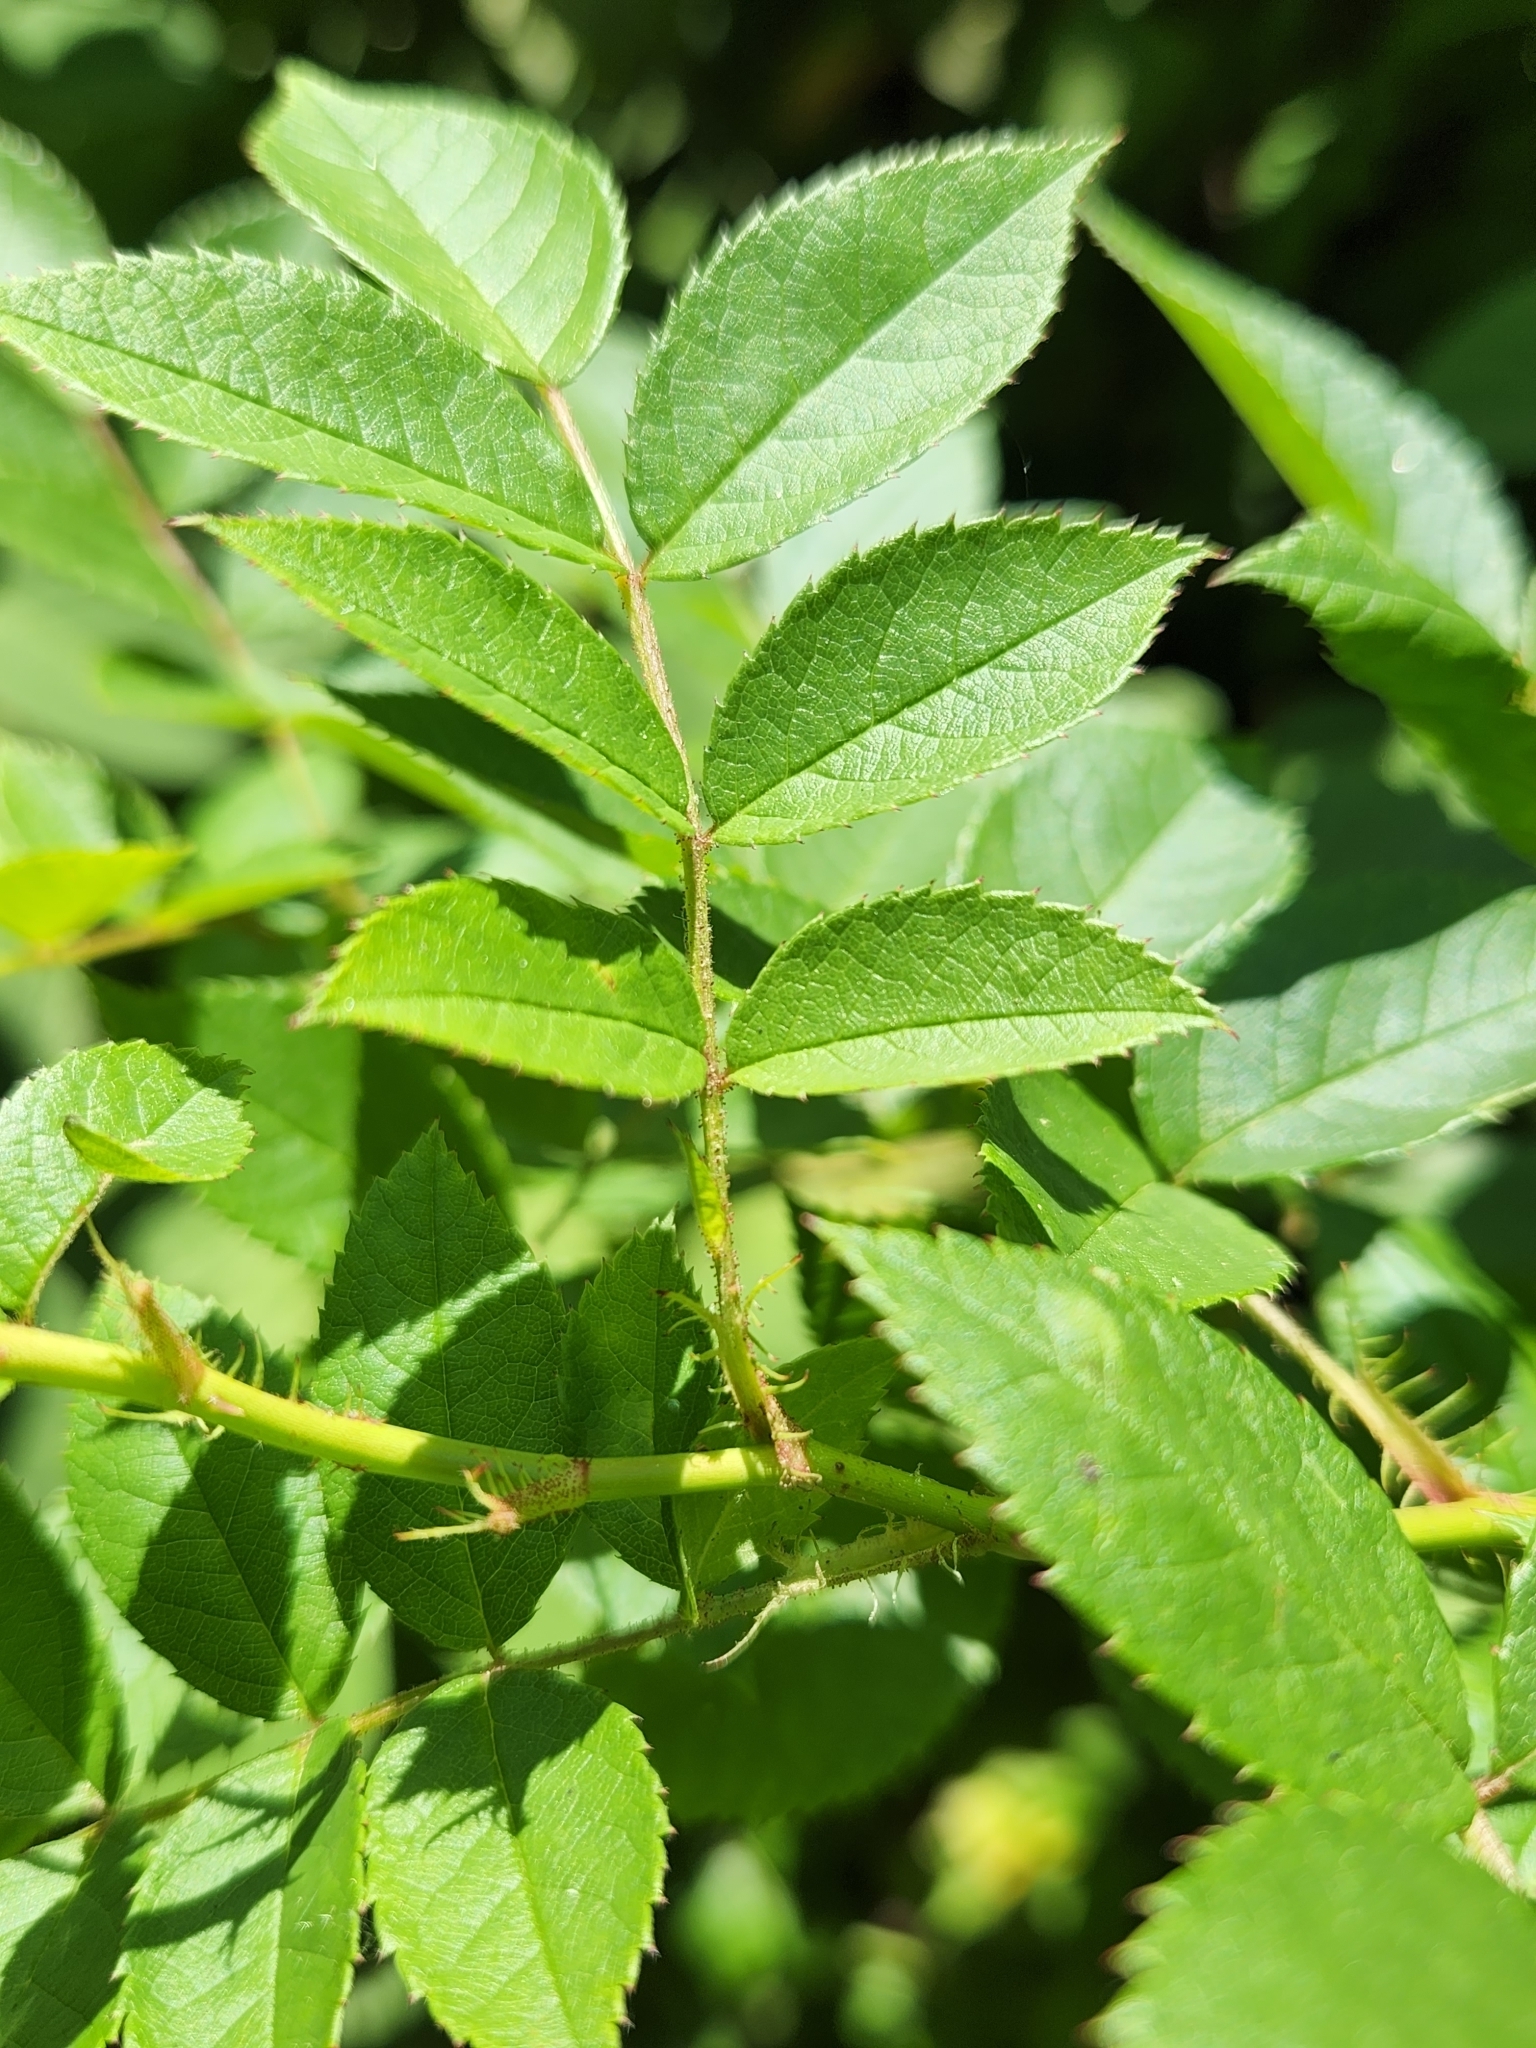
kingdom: Plantae
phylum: Tracheophyta
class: Magnoliopsida
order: Rosales
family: Rosaceae
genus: Rosa
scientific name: Rosa multiflora
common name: Multiflora rose
